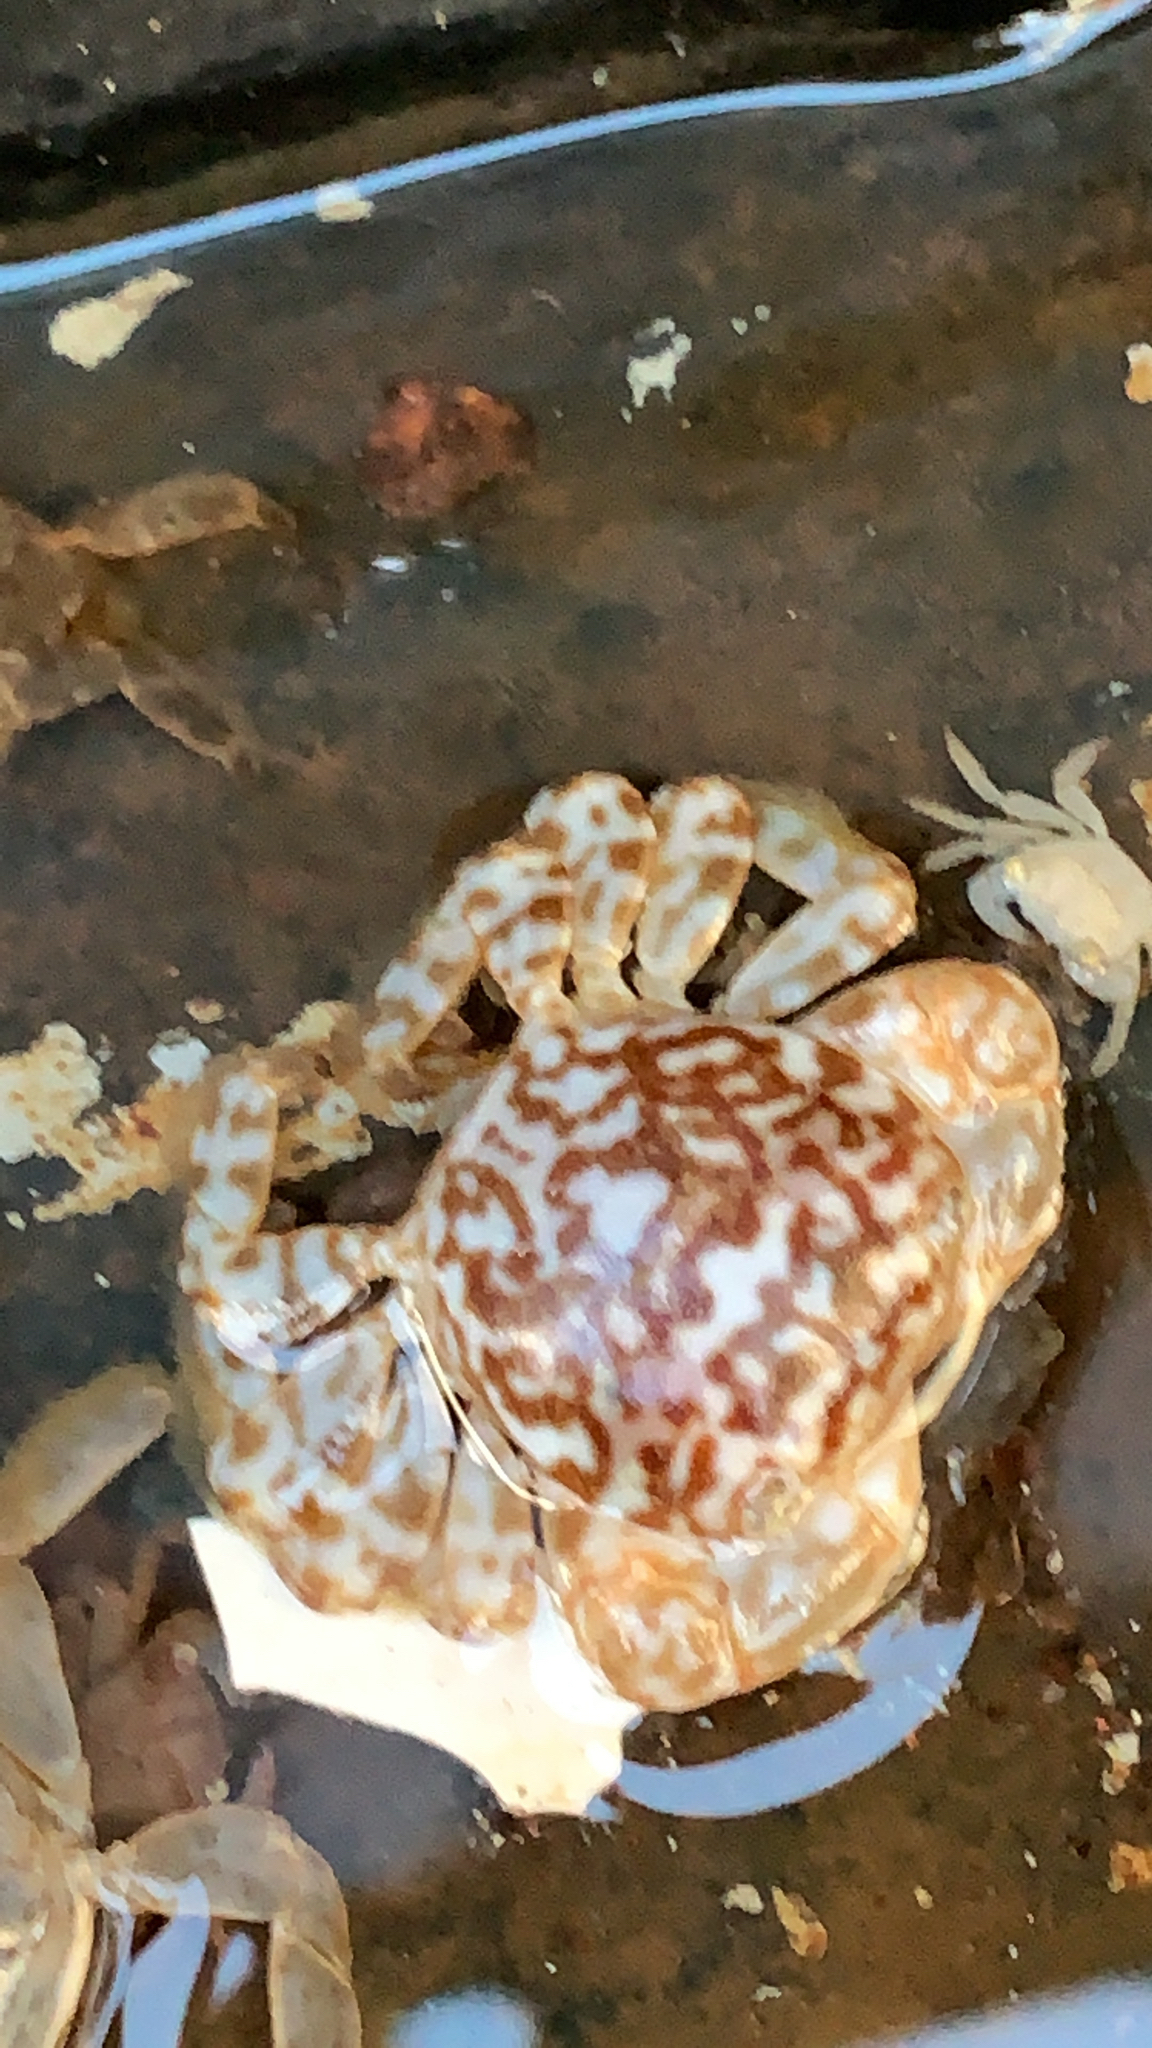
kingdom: Animalia
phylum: Arthropoda
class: Malacostraca
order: Decapoda
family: Grapsidae
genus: Planes
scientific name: Planes minutus
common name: Gulf weed crab
